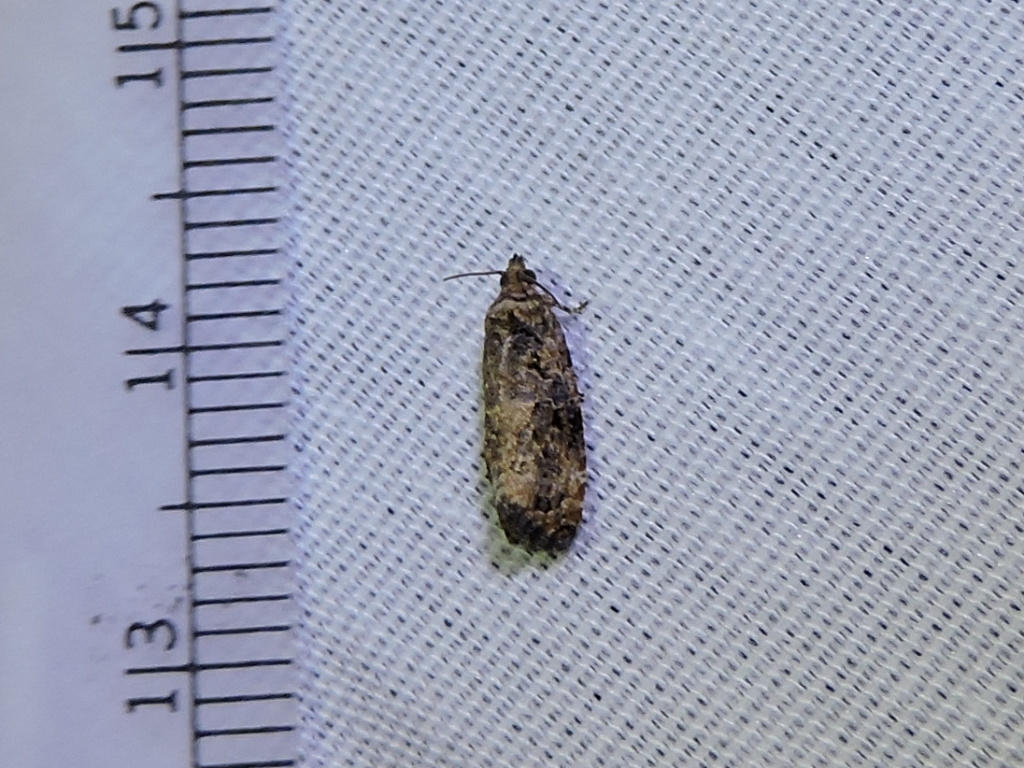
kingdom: Animalia
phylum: Arthropoda
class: Insecta
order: Lepidoptera
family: Tortricidae
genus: Endothenia
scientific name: Endothenia hebesana
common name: Verbena bud moth
